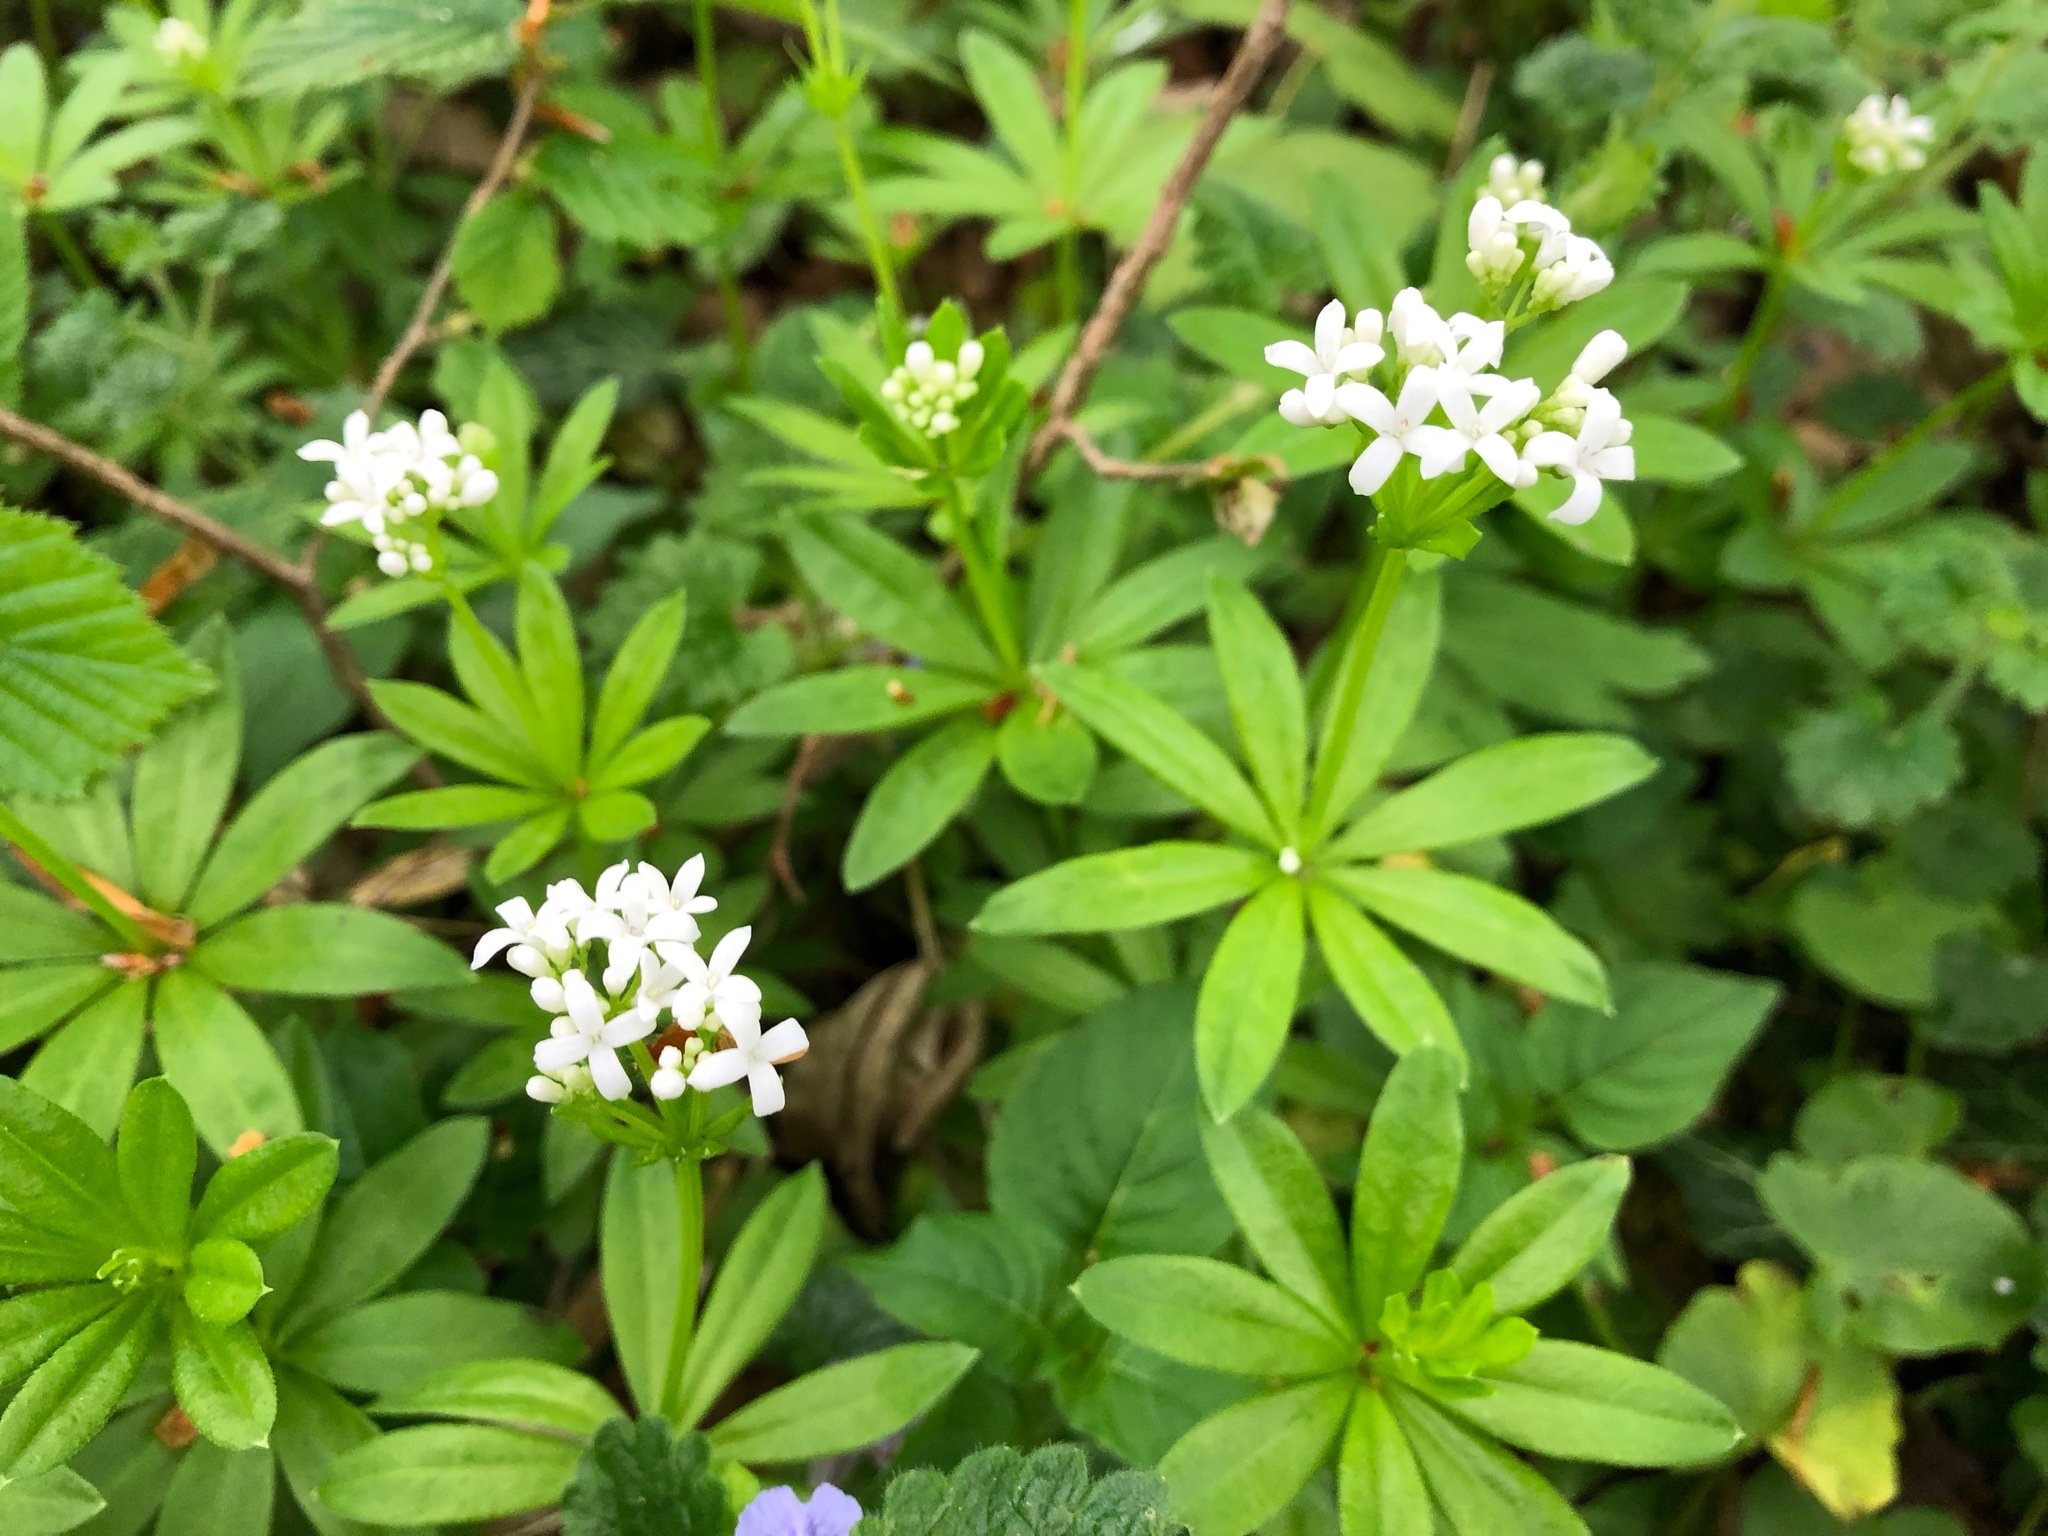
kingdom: Plantae
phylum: Tracheophyta
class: Magnoliopsida
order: Gentianales
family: Rubiaceae
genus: Galium
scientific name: Galium odoratum
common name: Sweet woodruff
